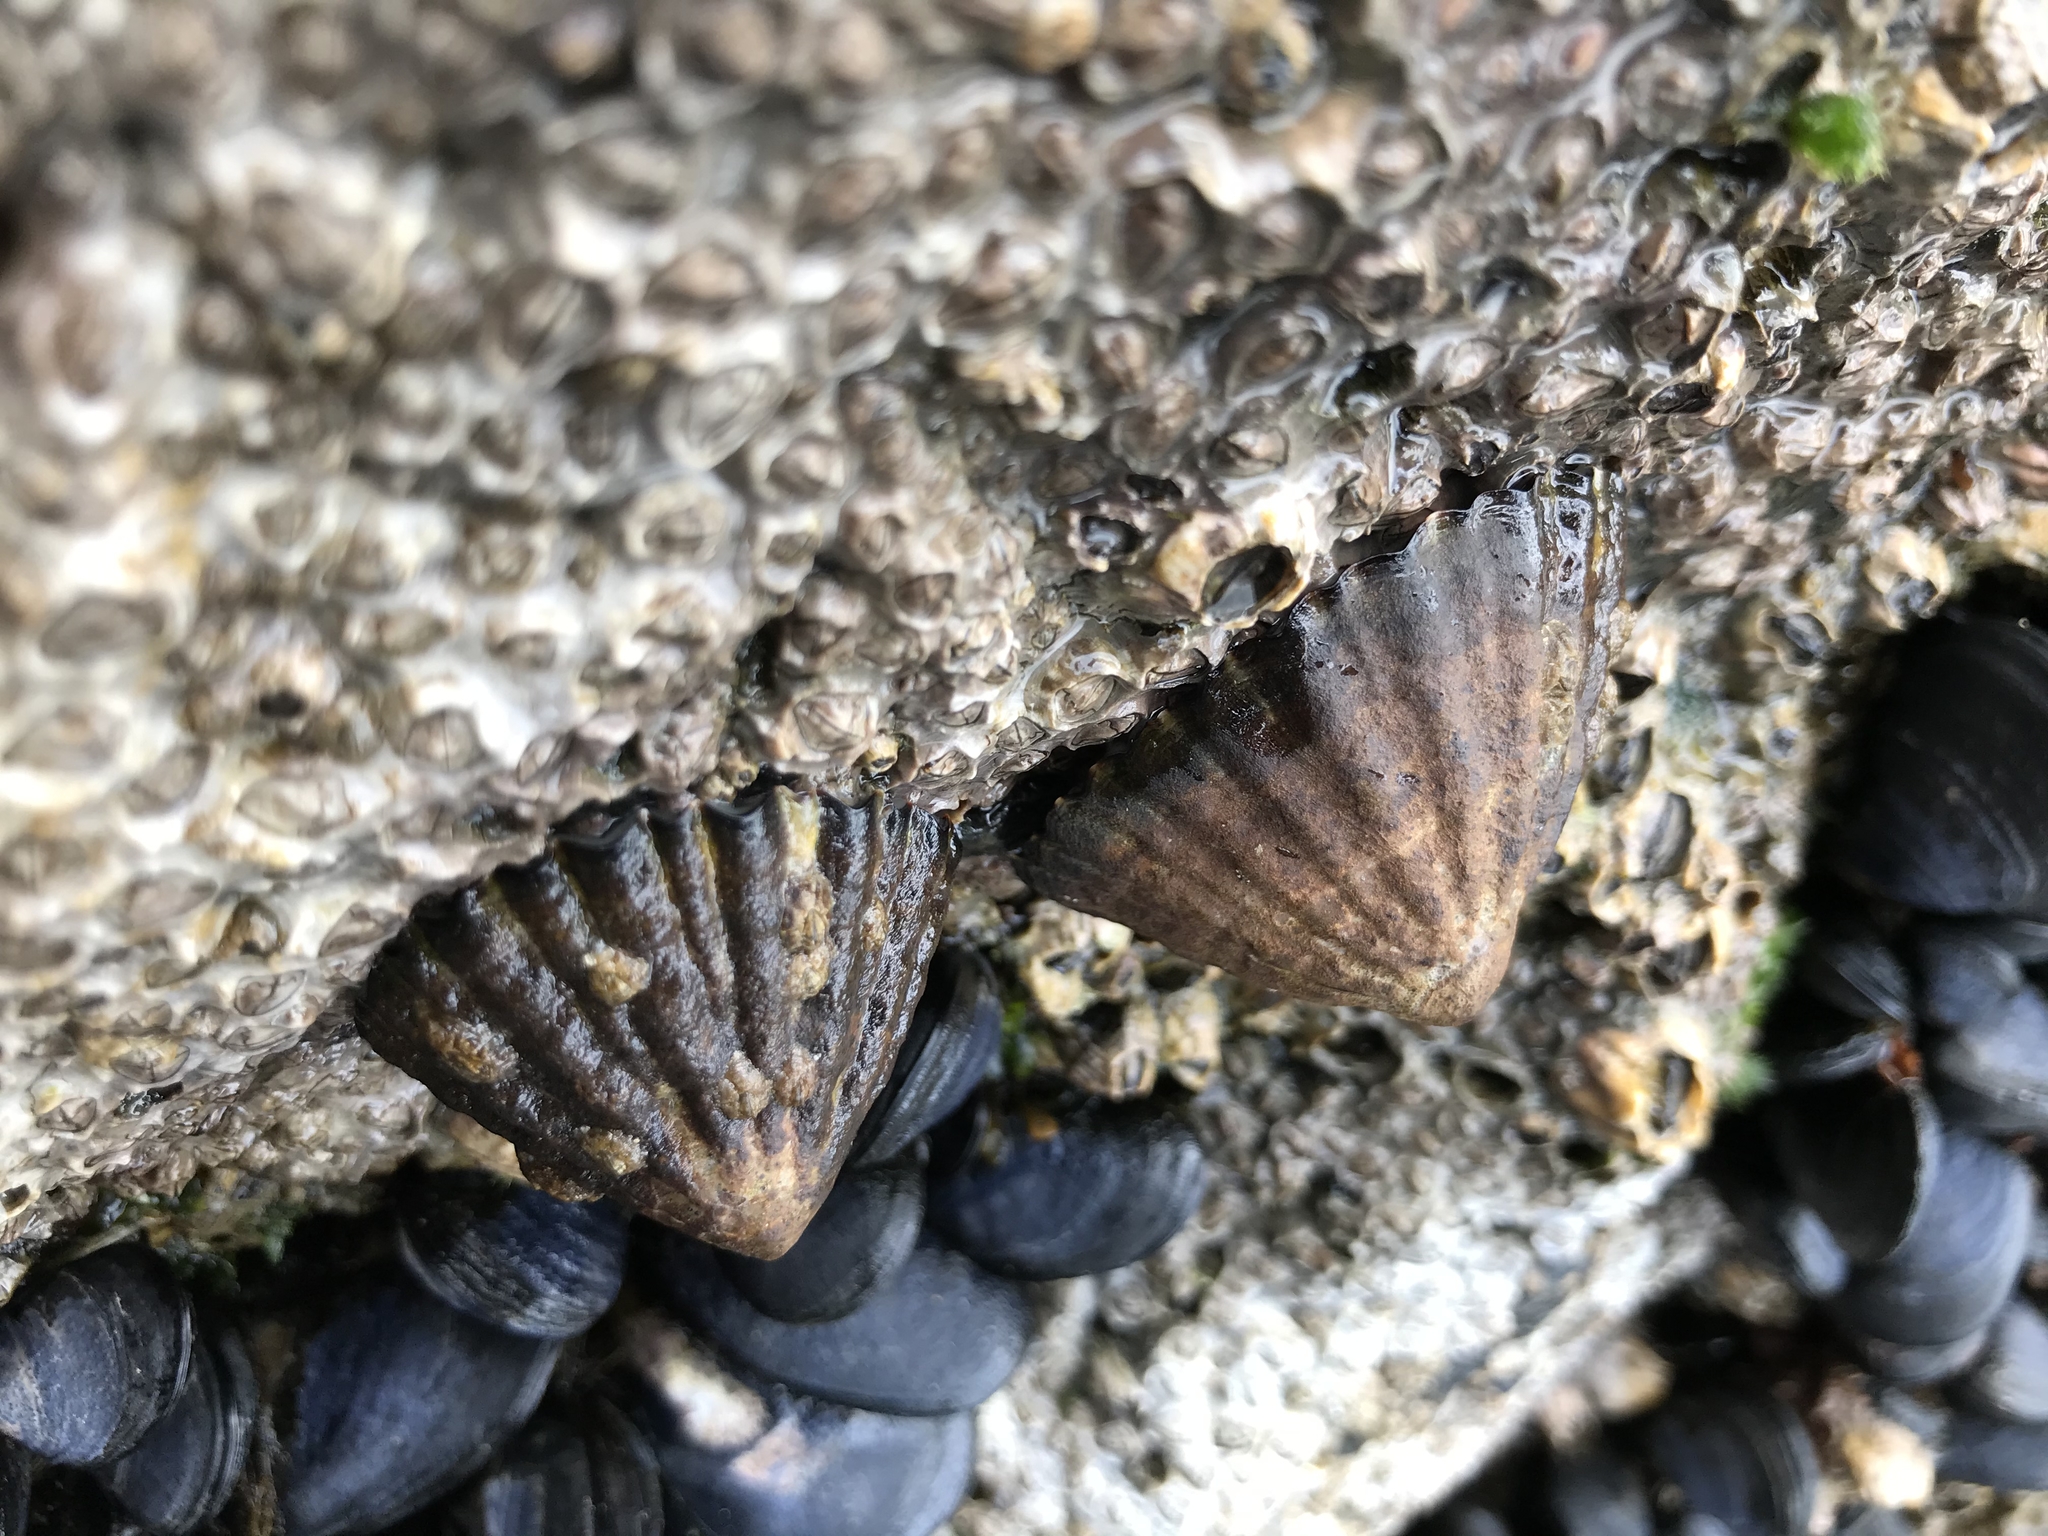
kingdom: Animalia
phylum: Mollusca
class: Gastropoda
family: Nacellidae
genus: Nacella
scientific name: Nacella magellanica
